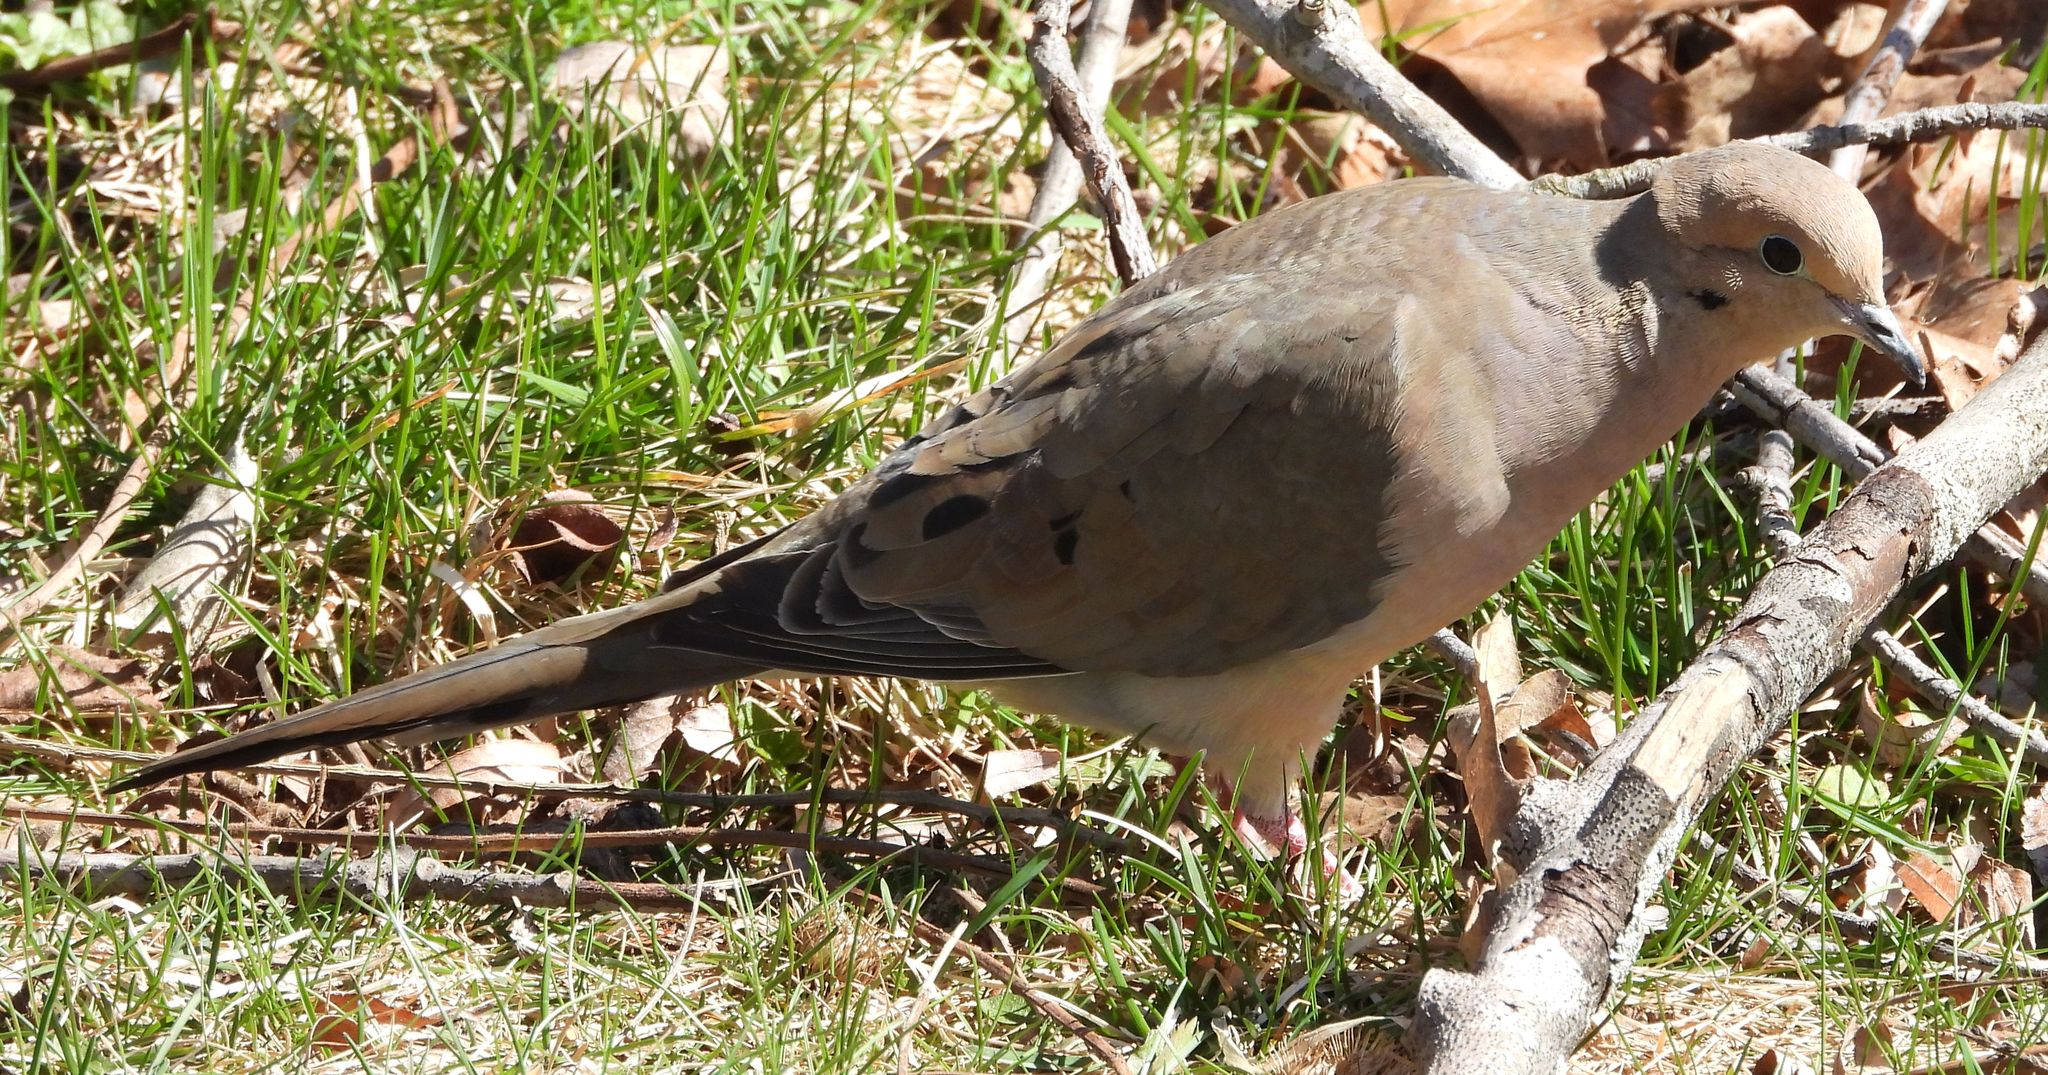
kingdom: Animalia
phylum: Chordata
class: Aves
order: Columbiformes
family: Columbidae
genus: Zenaida
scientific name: Zenaida macroura
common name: Mourning dove
